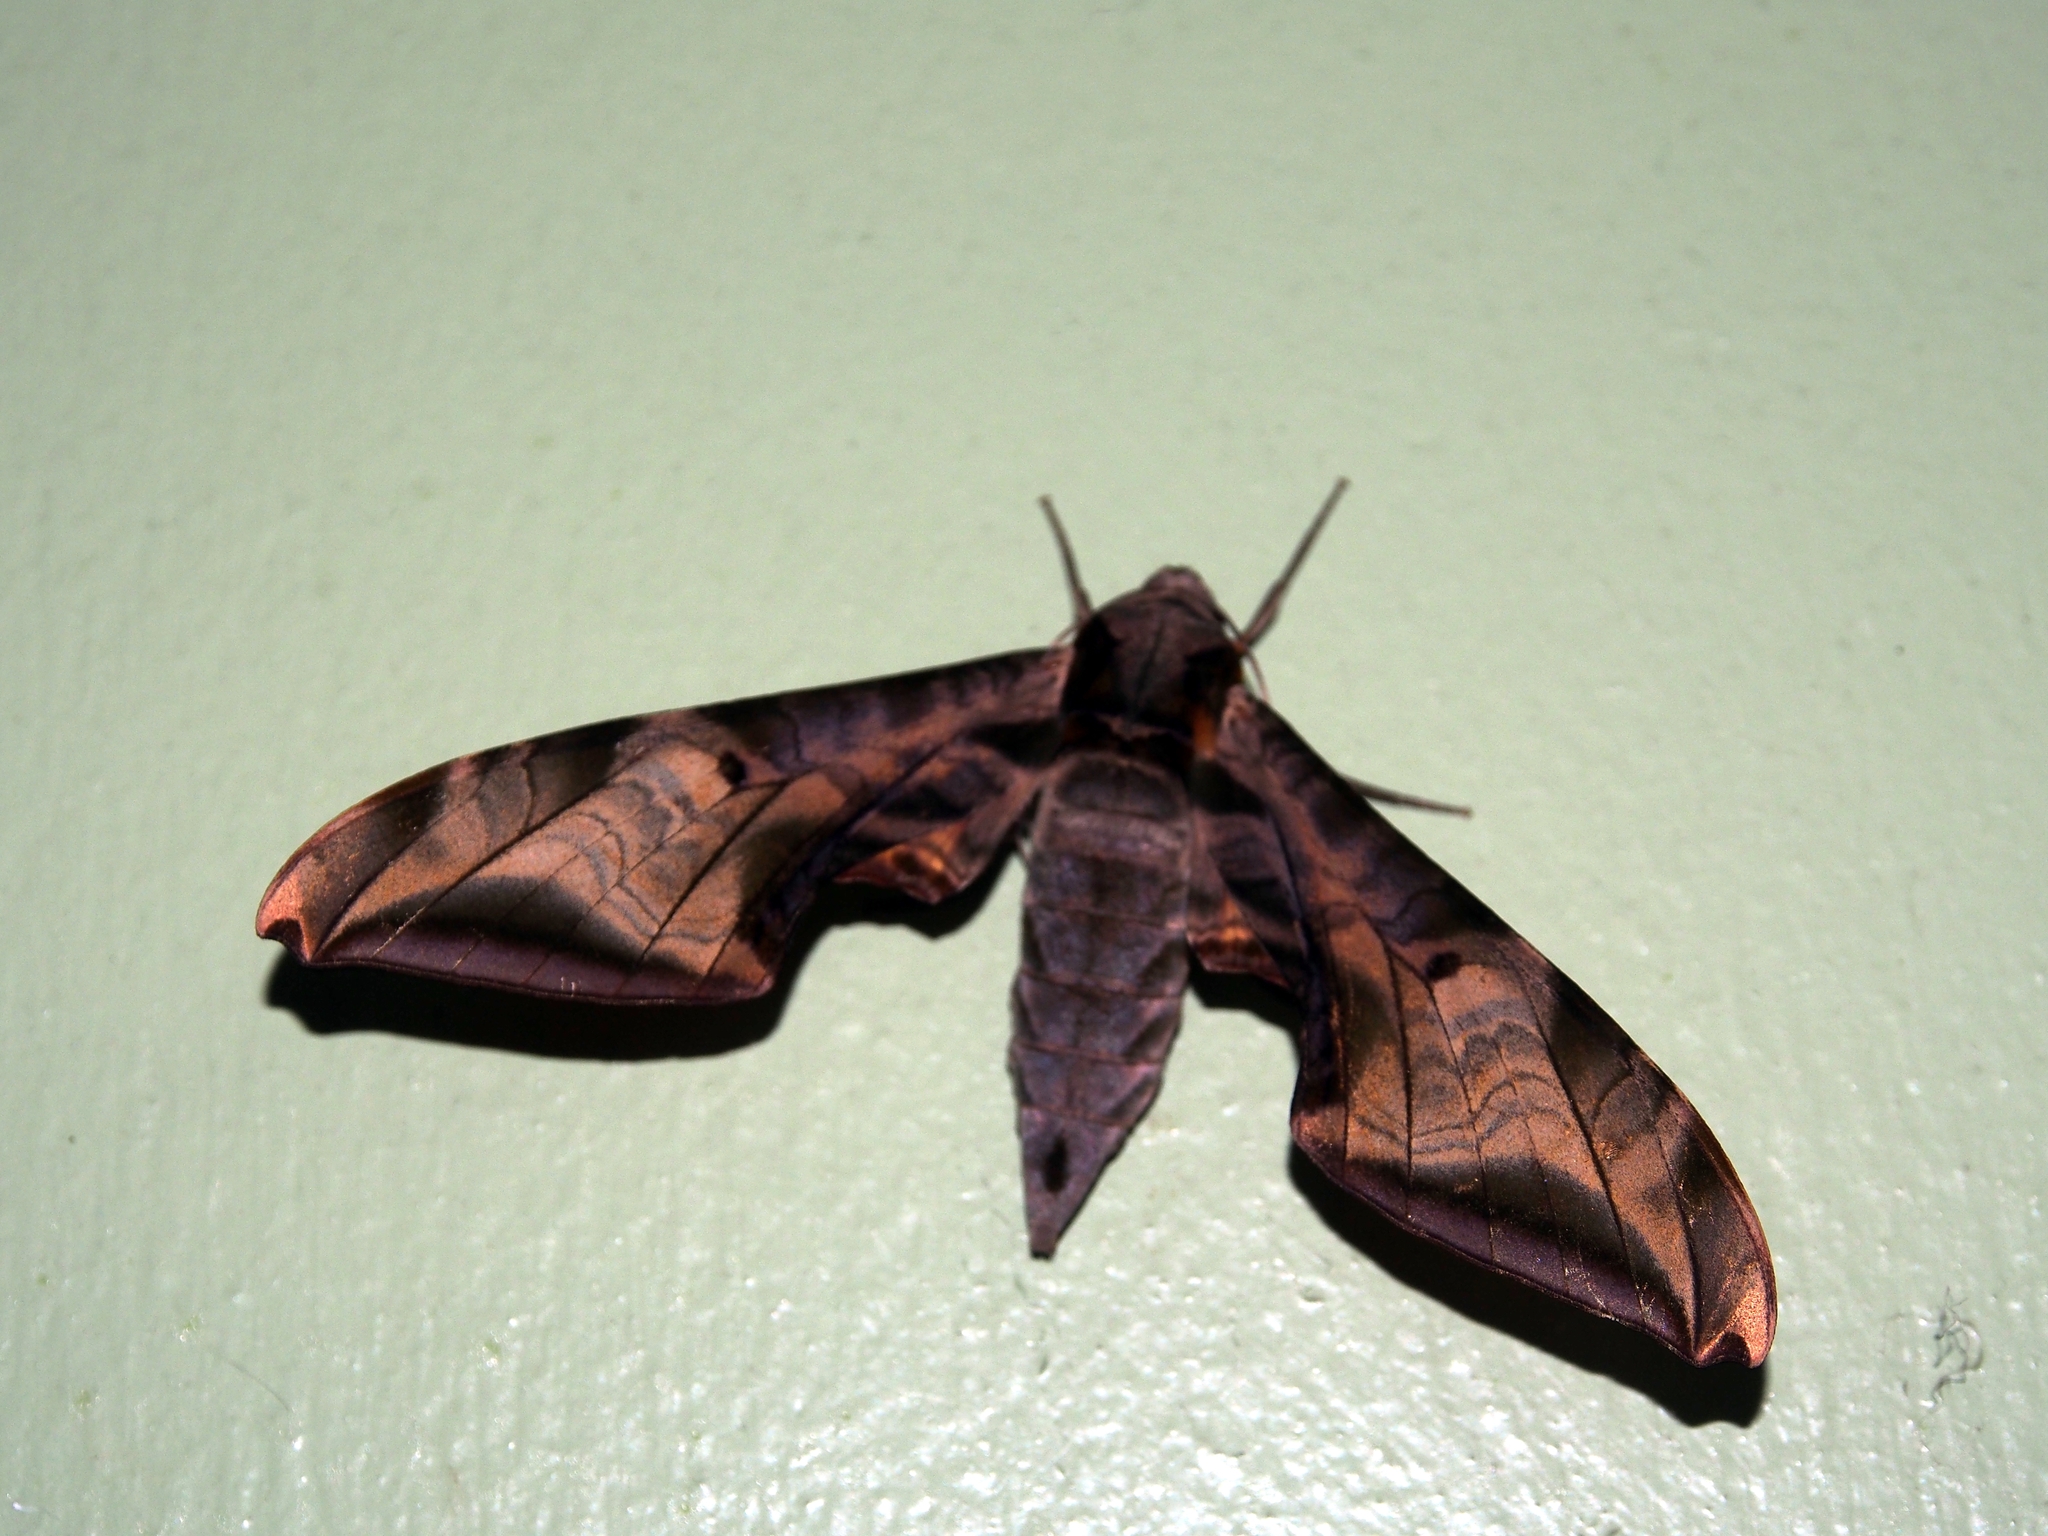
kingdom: Animalia
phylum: Arthropoda
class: Insecta
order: Lepidoptera
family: Sphingidae
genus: Protambulyx
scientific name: Protambulyx goeldii
